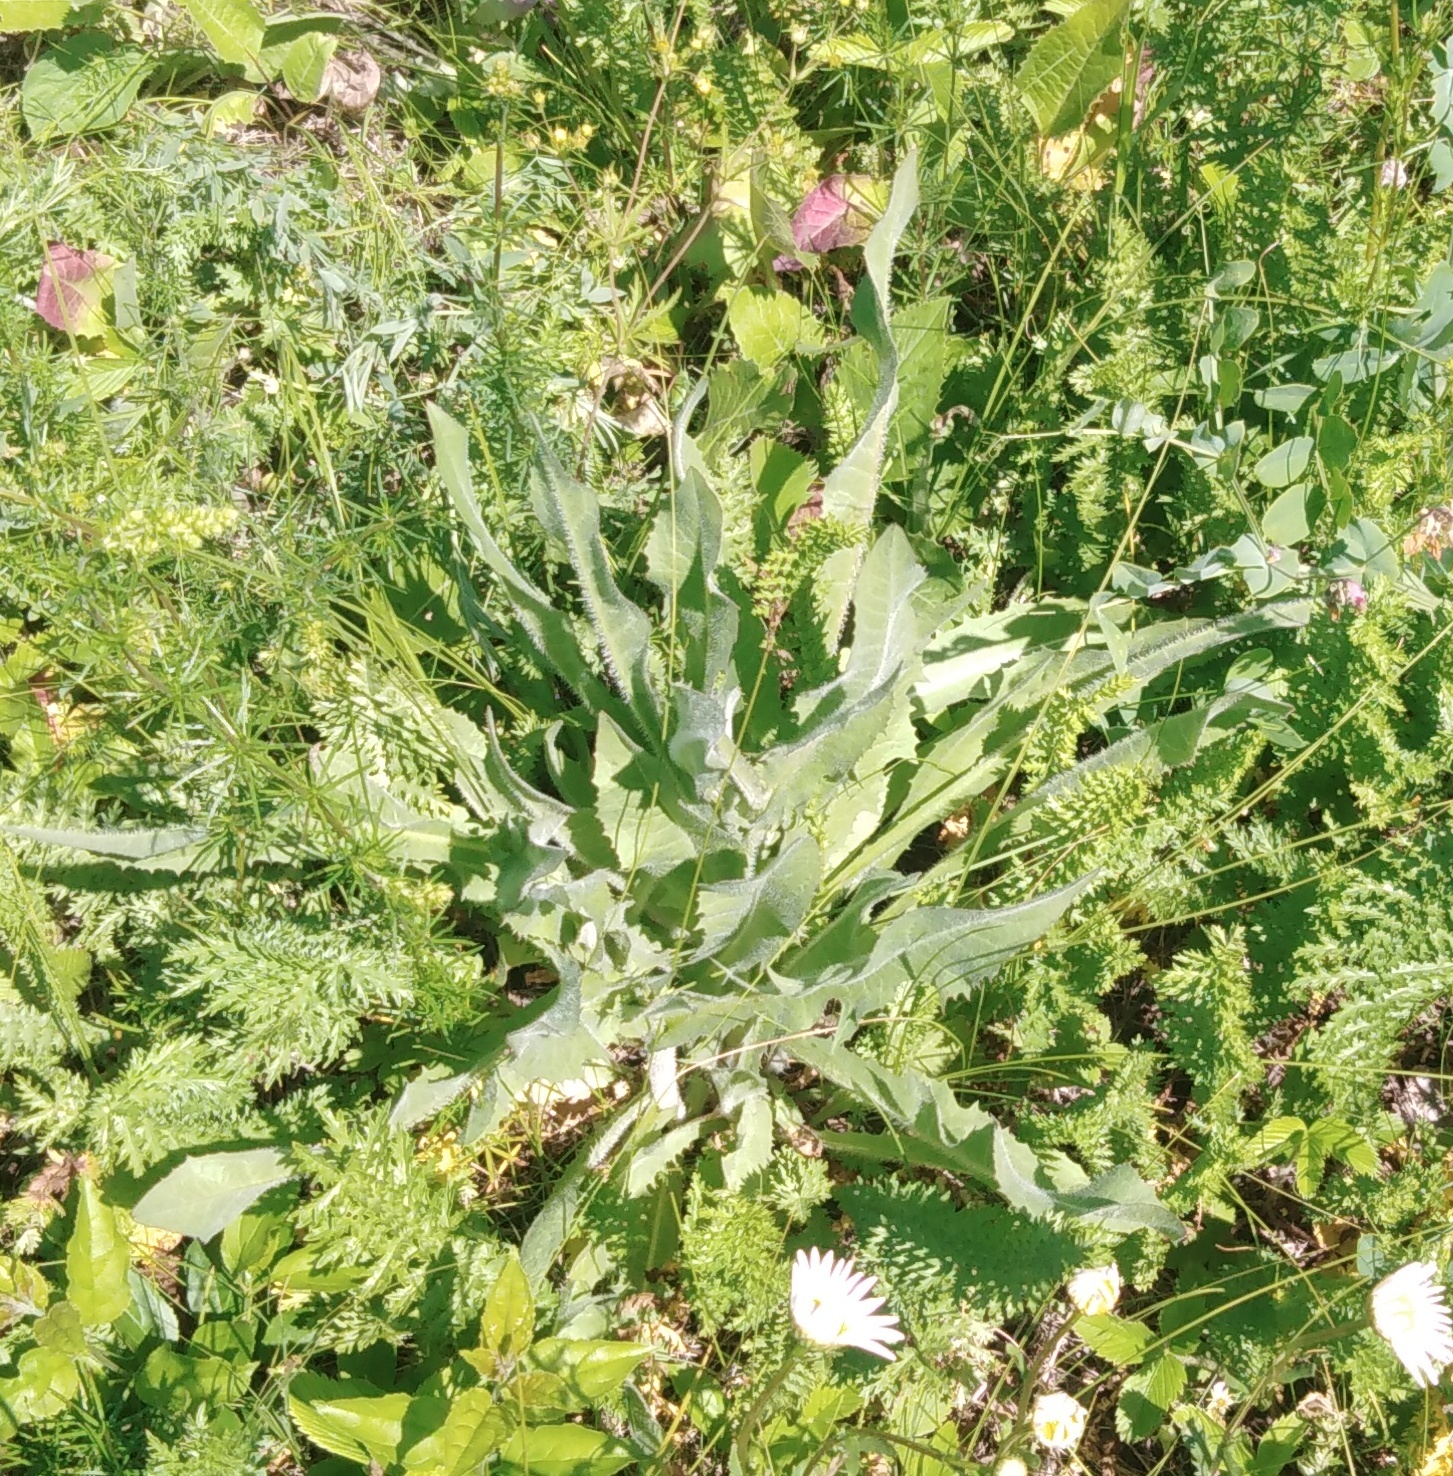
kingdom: Plantae
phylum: Tracheophyta
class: Magnoliopsida
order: Asterales
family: Asteraceae
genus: Cichorium
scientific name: Cichorium intybus
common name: Chicory
